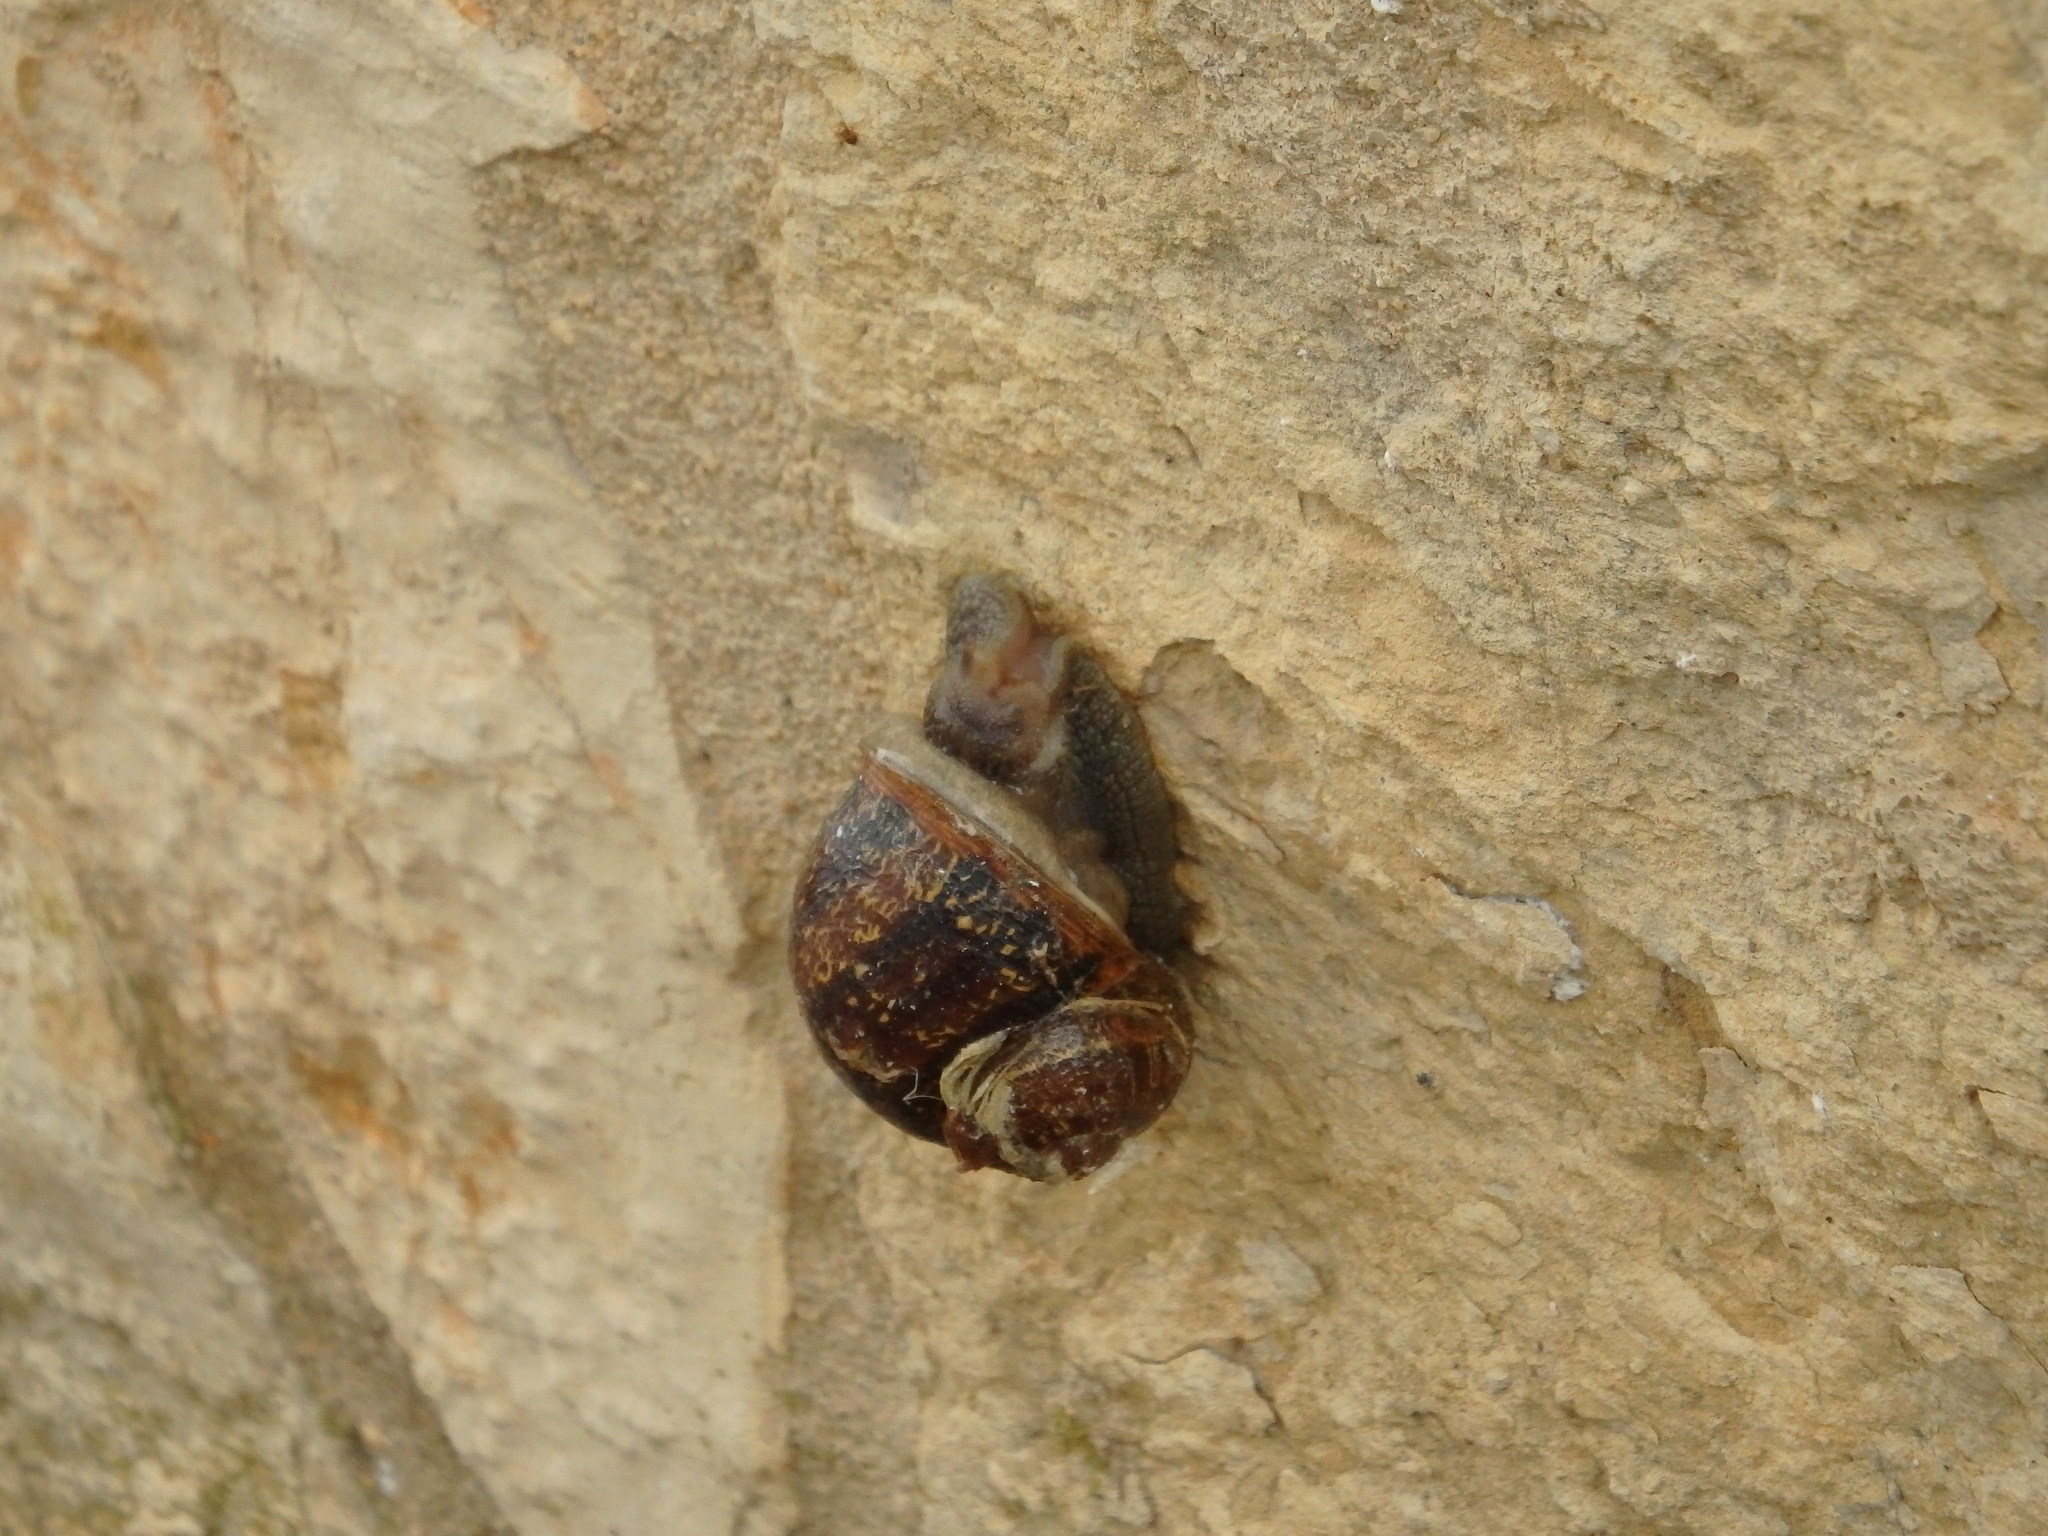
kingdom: Animalia
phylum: Mollusca
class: Gastropoda
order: Stylommatophora
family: Helicidae
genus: Cornu
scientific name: Cornu aspersum
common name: Brown garden snail
